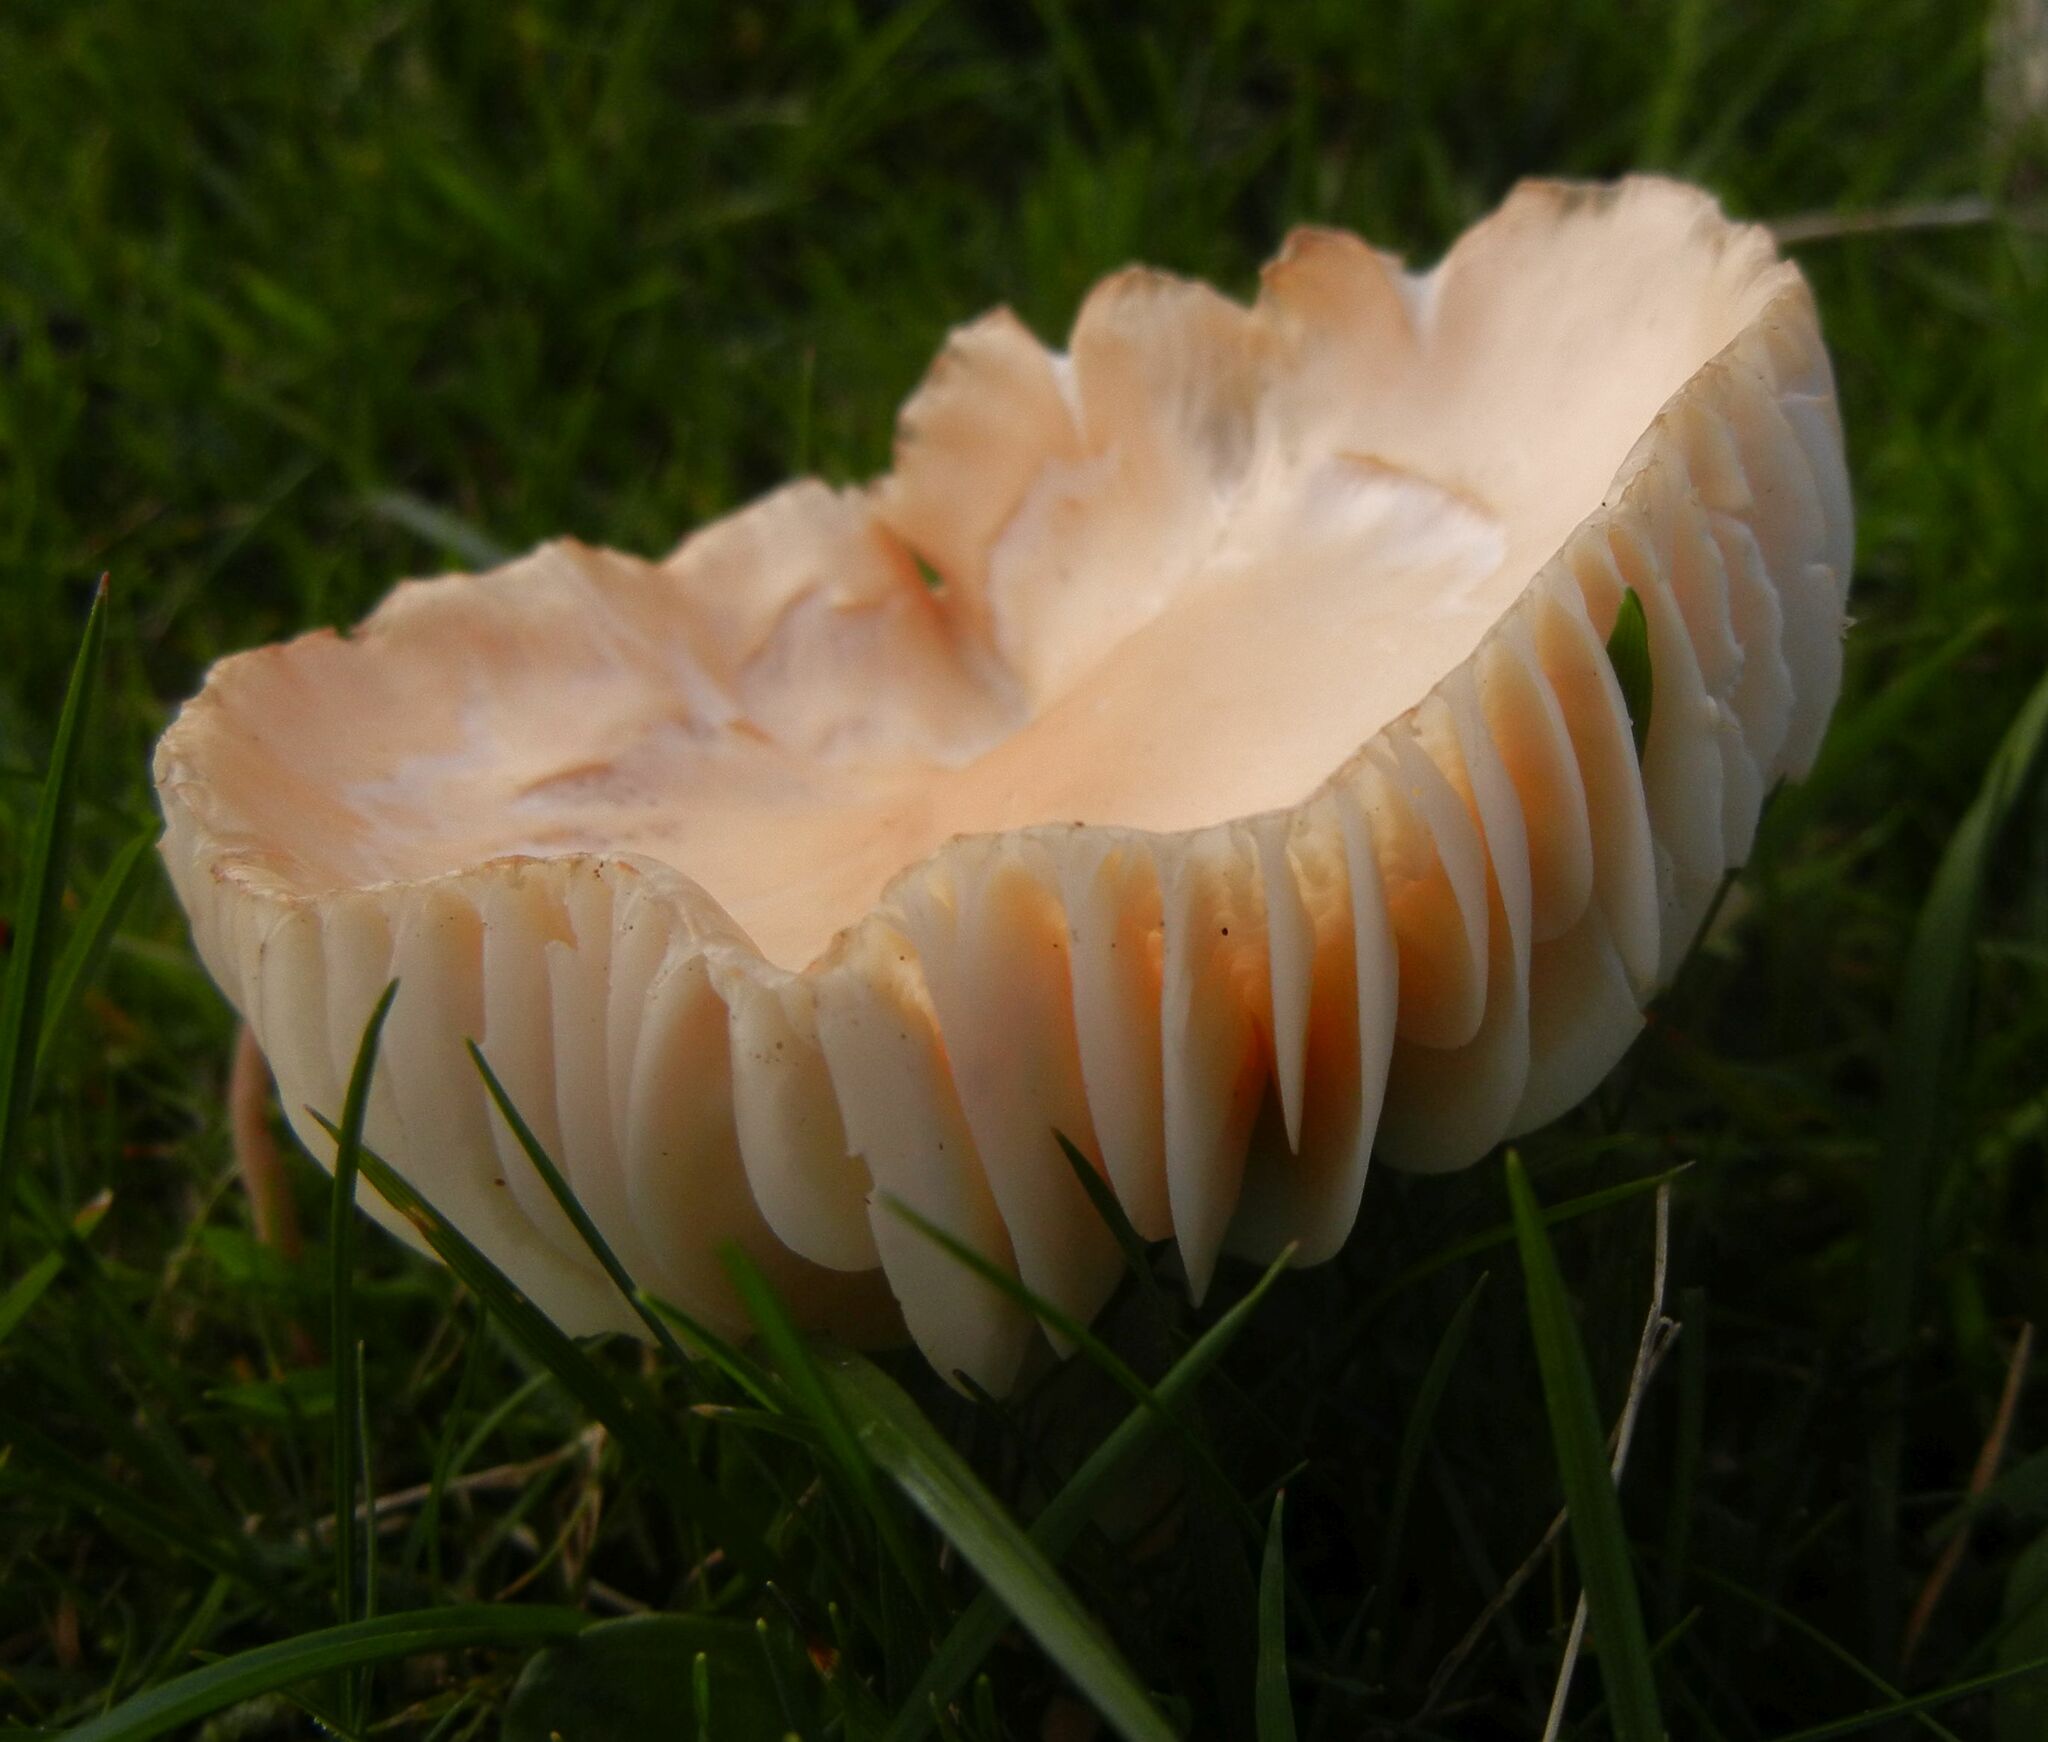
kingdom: Fungi
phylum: Basidiomycota
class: Agaricomycetes
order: Agaricales
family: Hygrophoraceae
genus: Cuphophyllus
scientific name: Cuphophyllus pratensis
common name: Meadow waxcap
